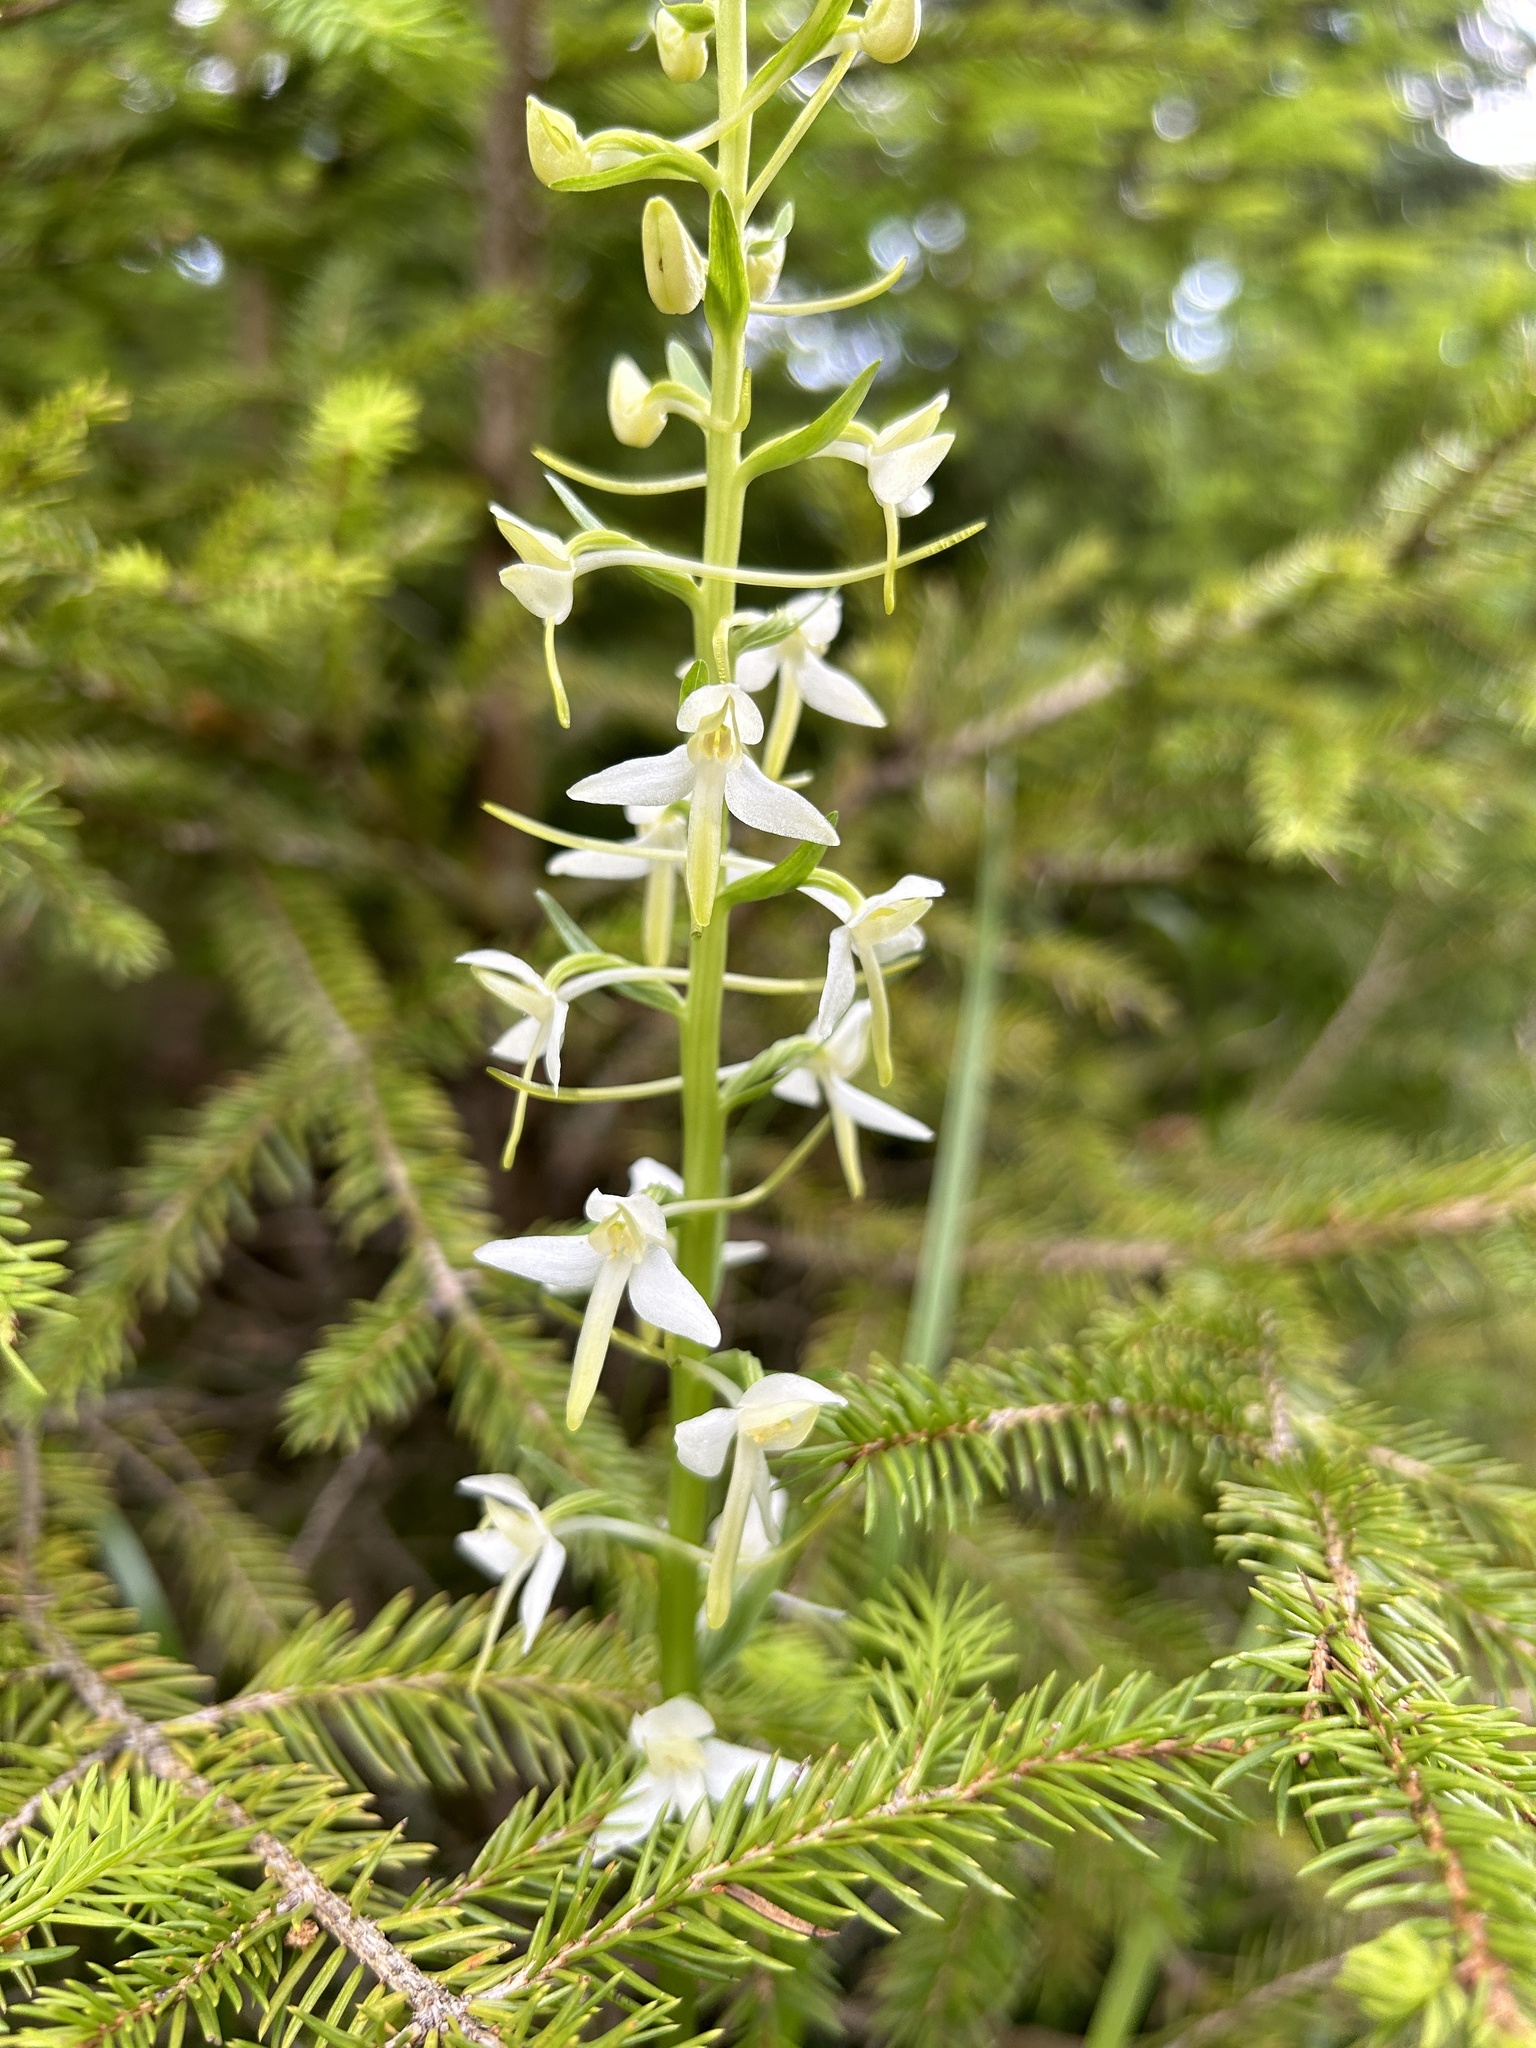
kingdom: Plantae
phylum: Tracheophyta
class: Liliopsida
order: Asparagales
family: Orchidaceae
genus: Platanthera
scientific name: Platanthera bifolia
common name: Lesser butterfly-orchid
